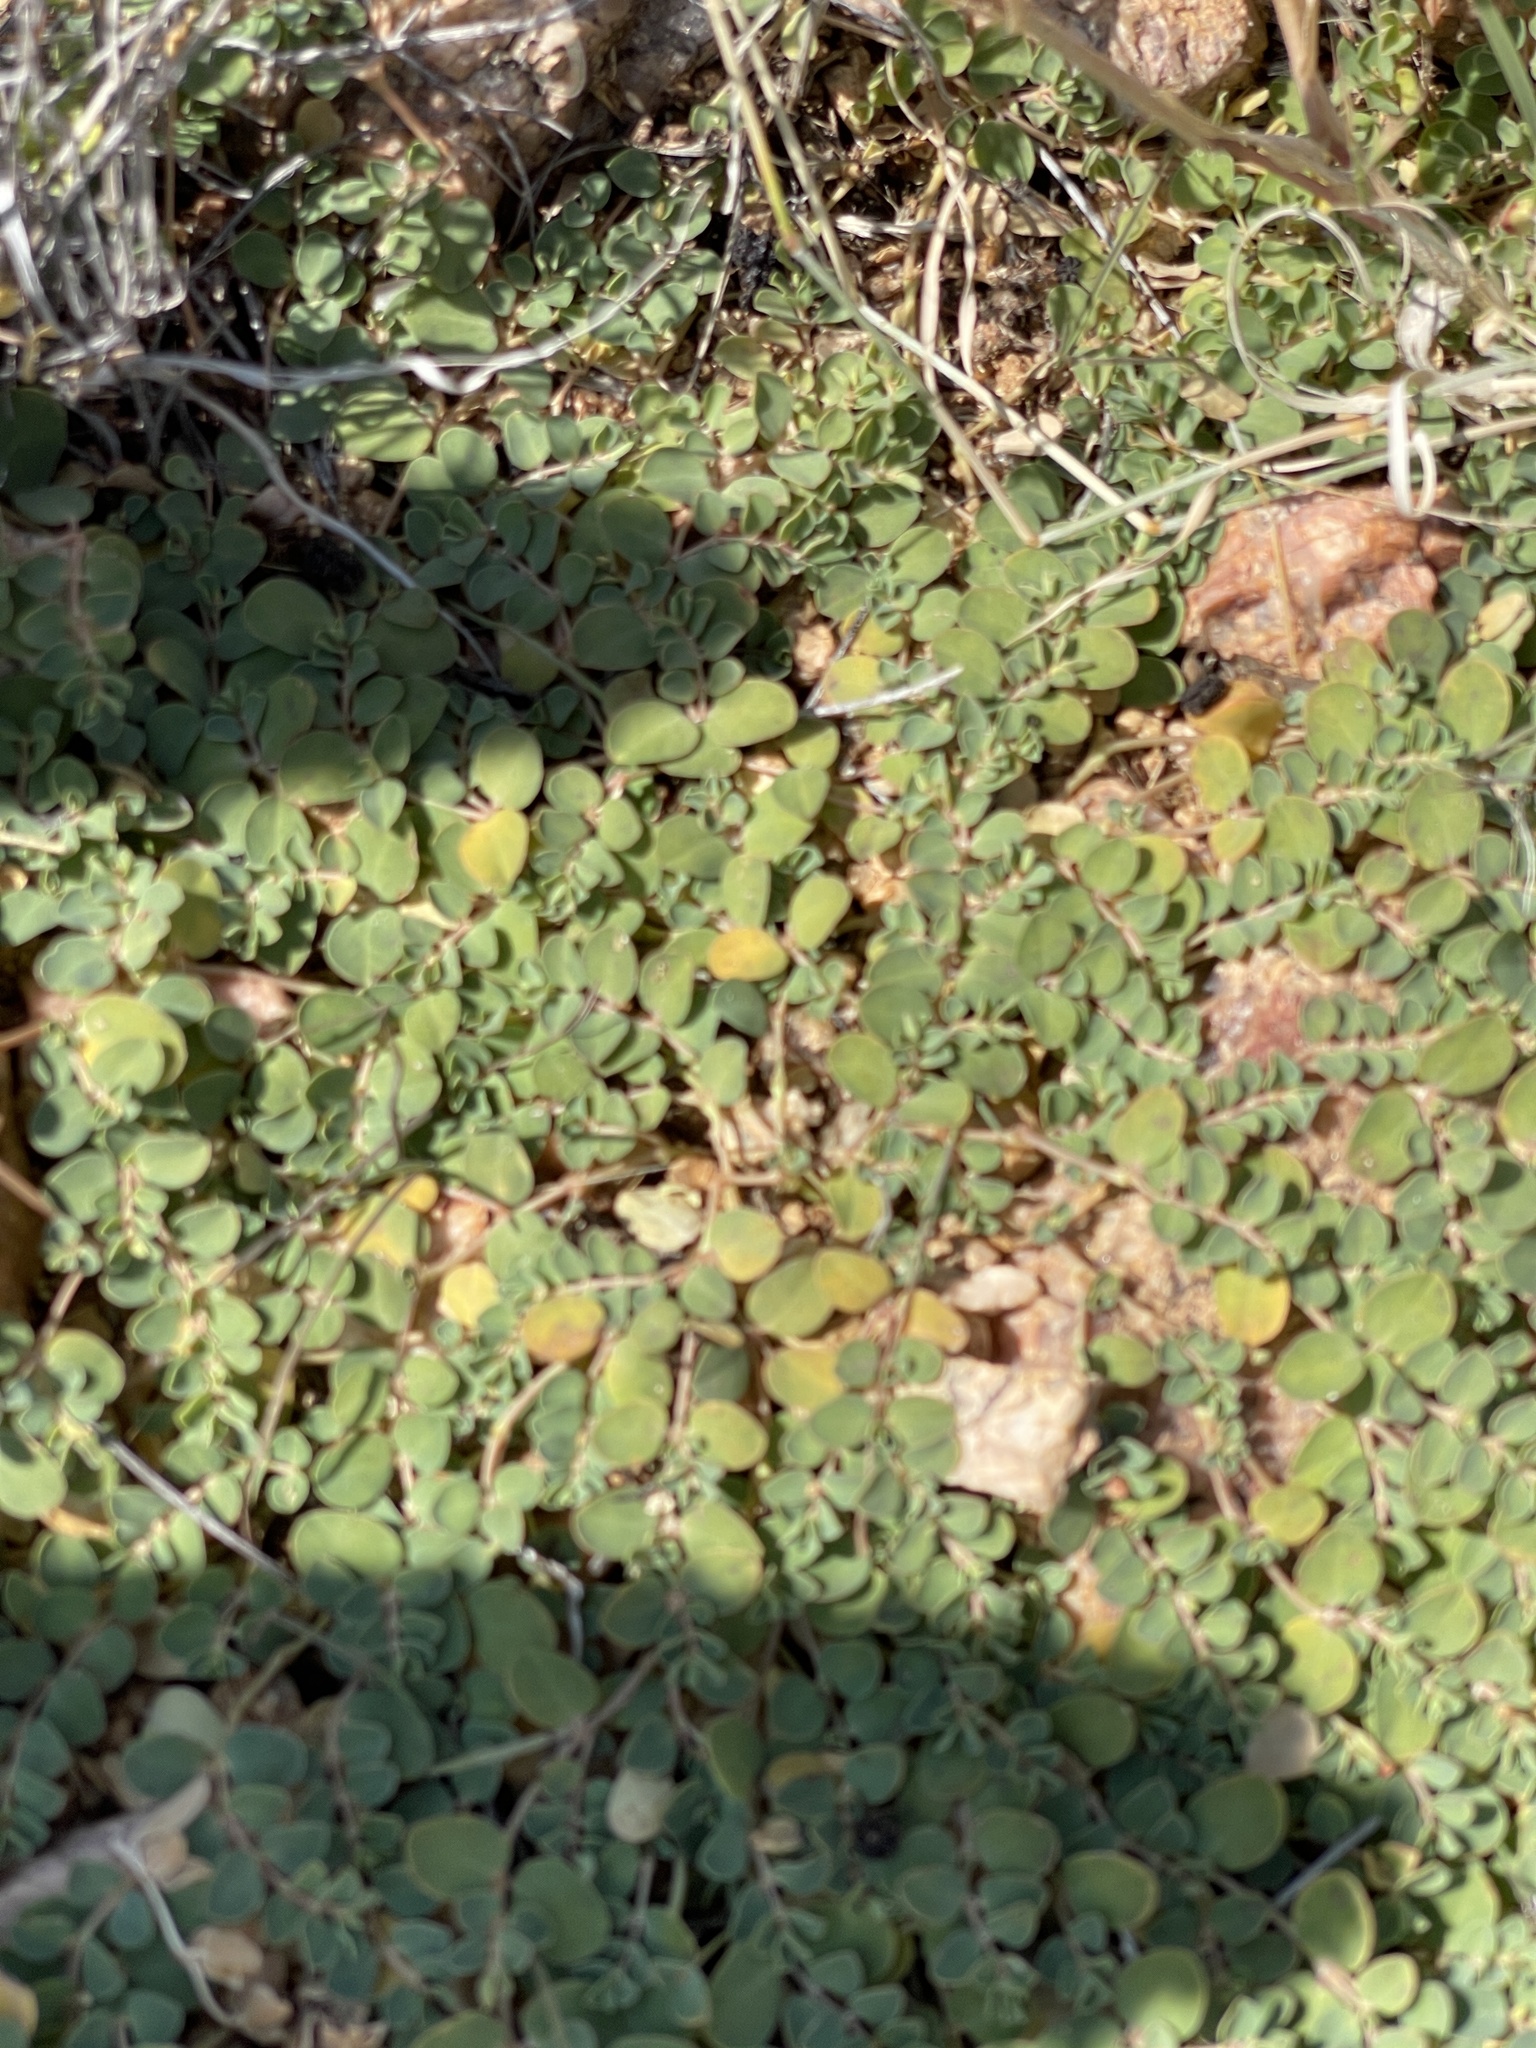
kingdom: Plantae
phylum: Tracheophyta
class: Magnoliopsida
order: Malpighiales
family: Euphorbiaceae
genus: Euphorbia
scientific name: Euphorbia albomarginata
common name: Whitemargin sandmat
